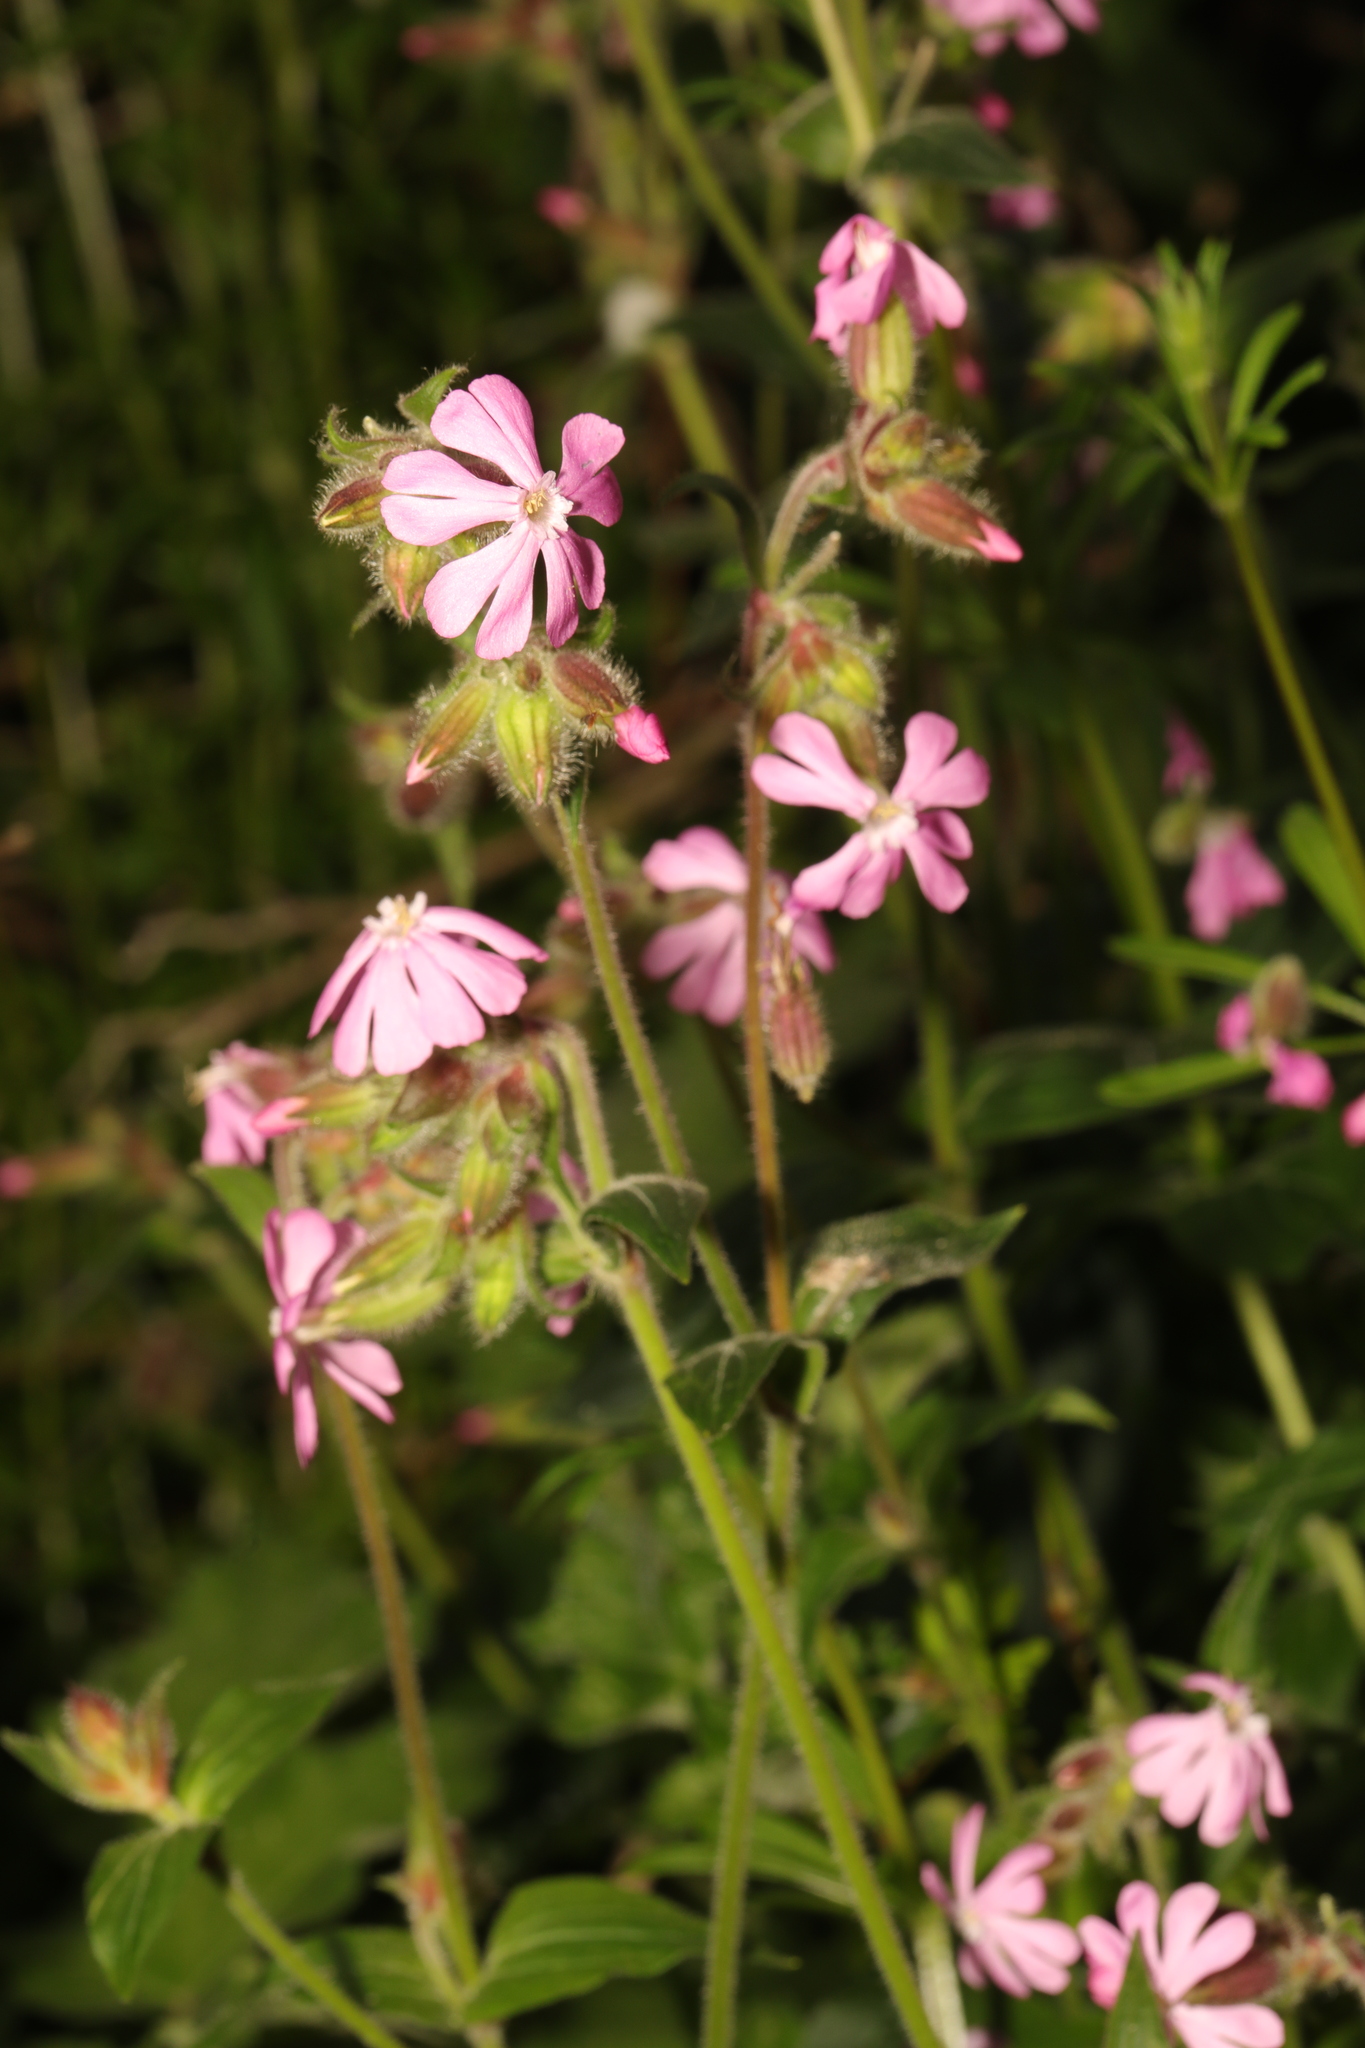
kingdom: Plantae
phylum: Tracheophyta
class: Magnoliopsida
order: Caryophyllales
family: Caryophyllaceae
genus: Silene
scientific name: Silene dioica
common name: Red campion
